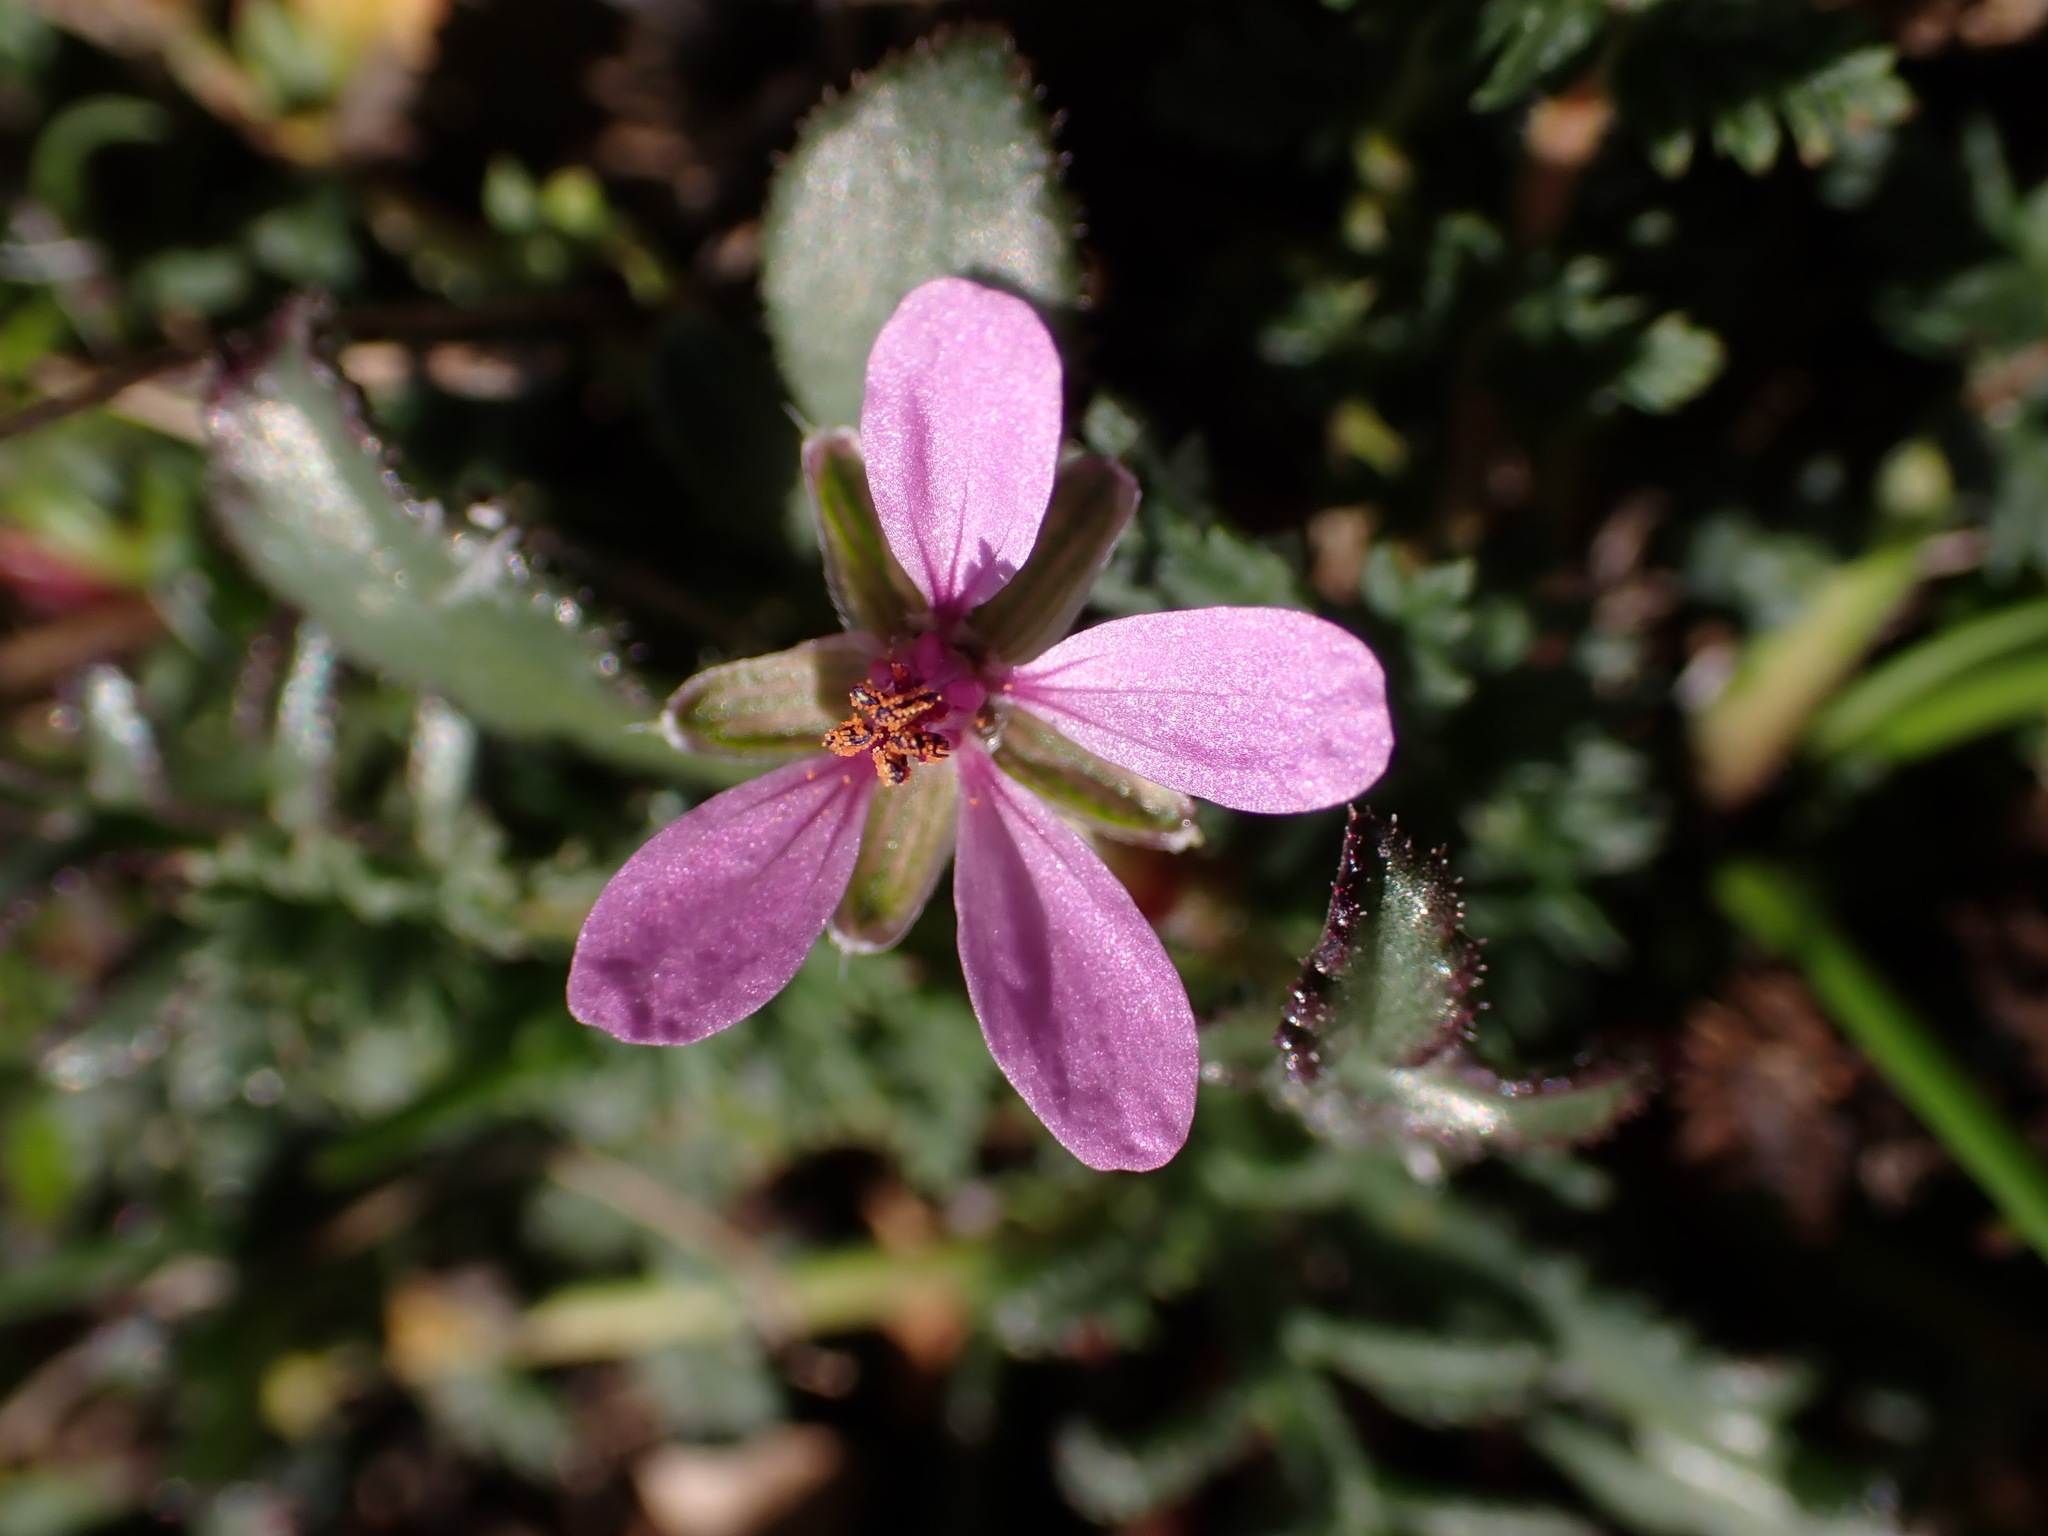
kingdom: Plantae
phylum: Tracheophyta
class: Magnoliopsida
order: Geraniales
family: Geraniaceae
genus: Erodium
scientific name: Erodium cicutarium
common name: Common stork's-bill
